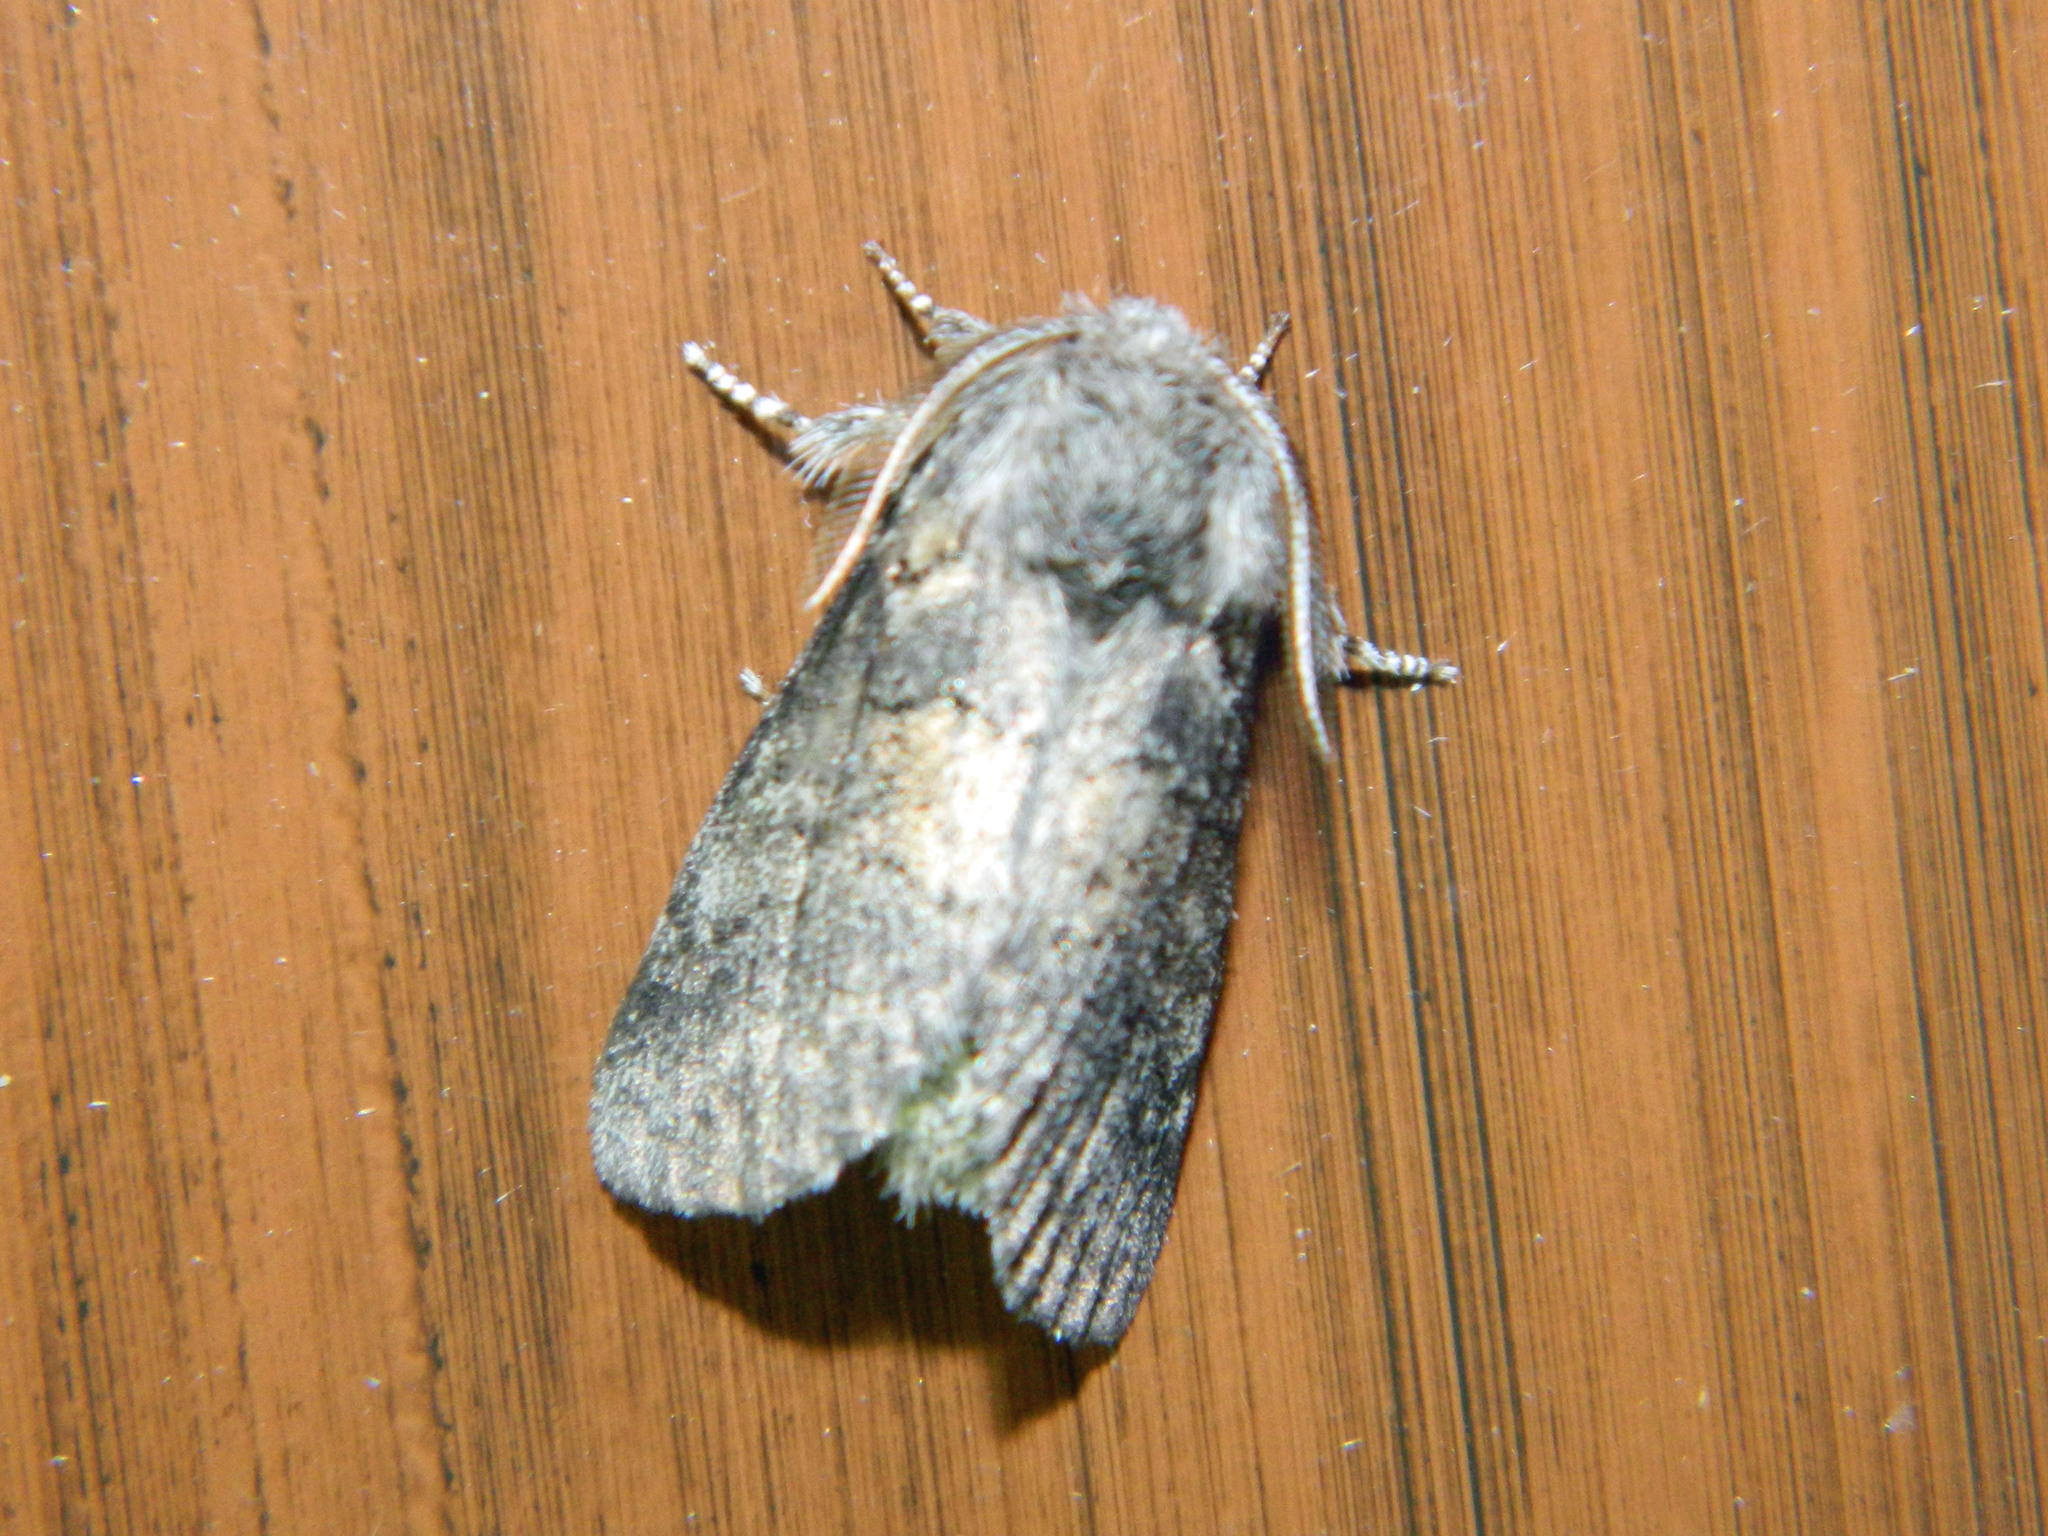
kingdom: Animalia
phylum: Arthropoda
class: Insecta
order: Lepidoptera
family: Notodontidae
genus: Gluphisia
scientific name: Gluphisia septentrionis
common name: Common gluphisia
